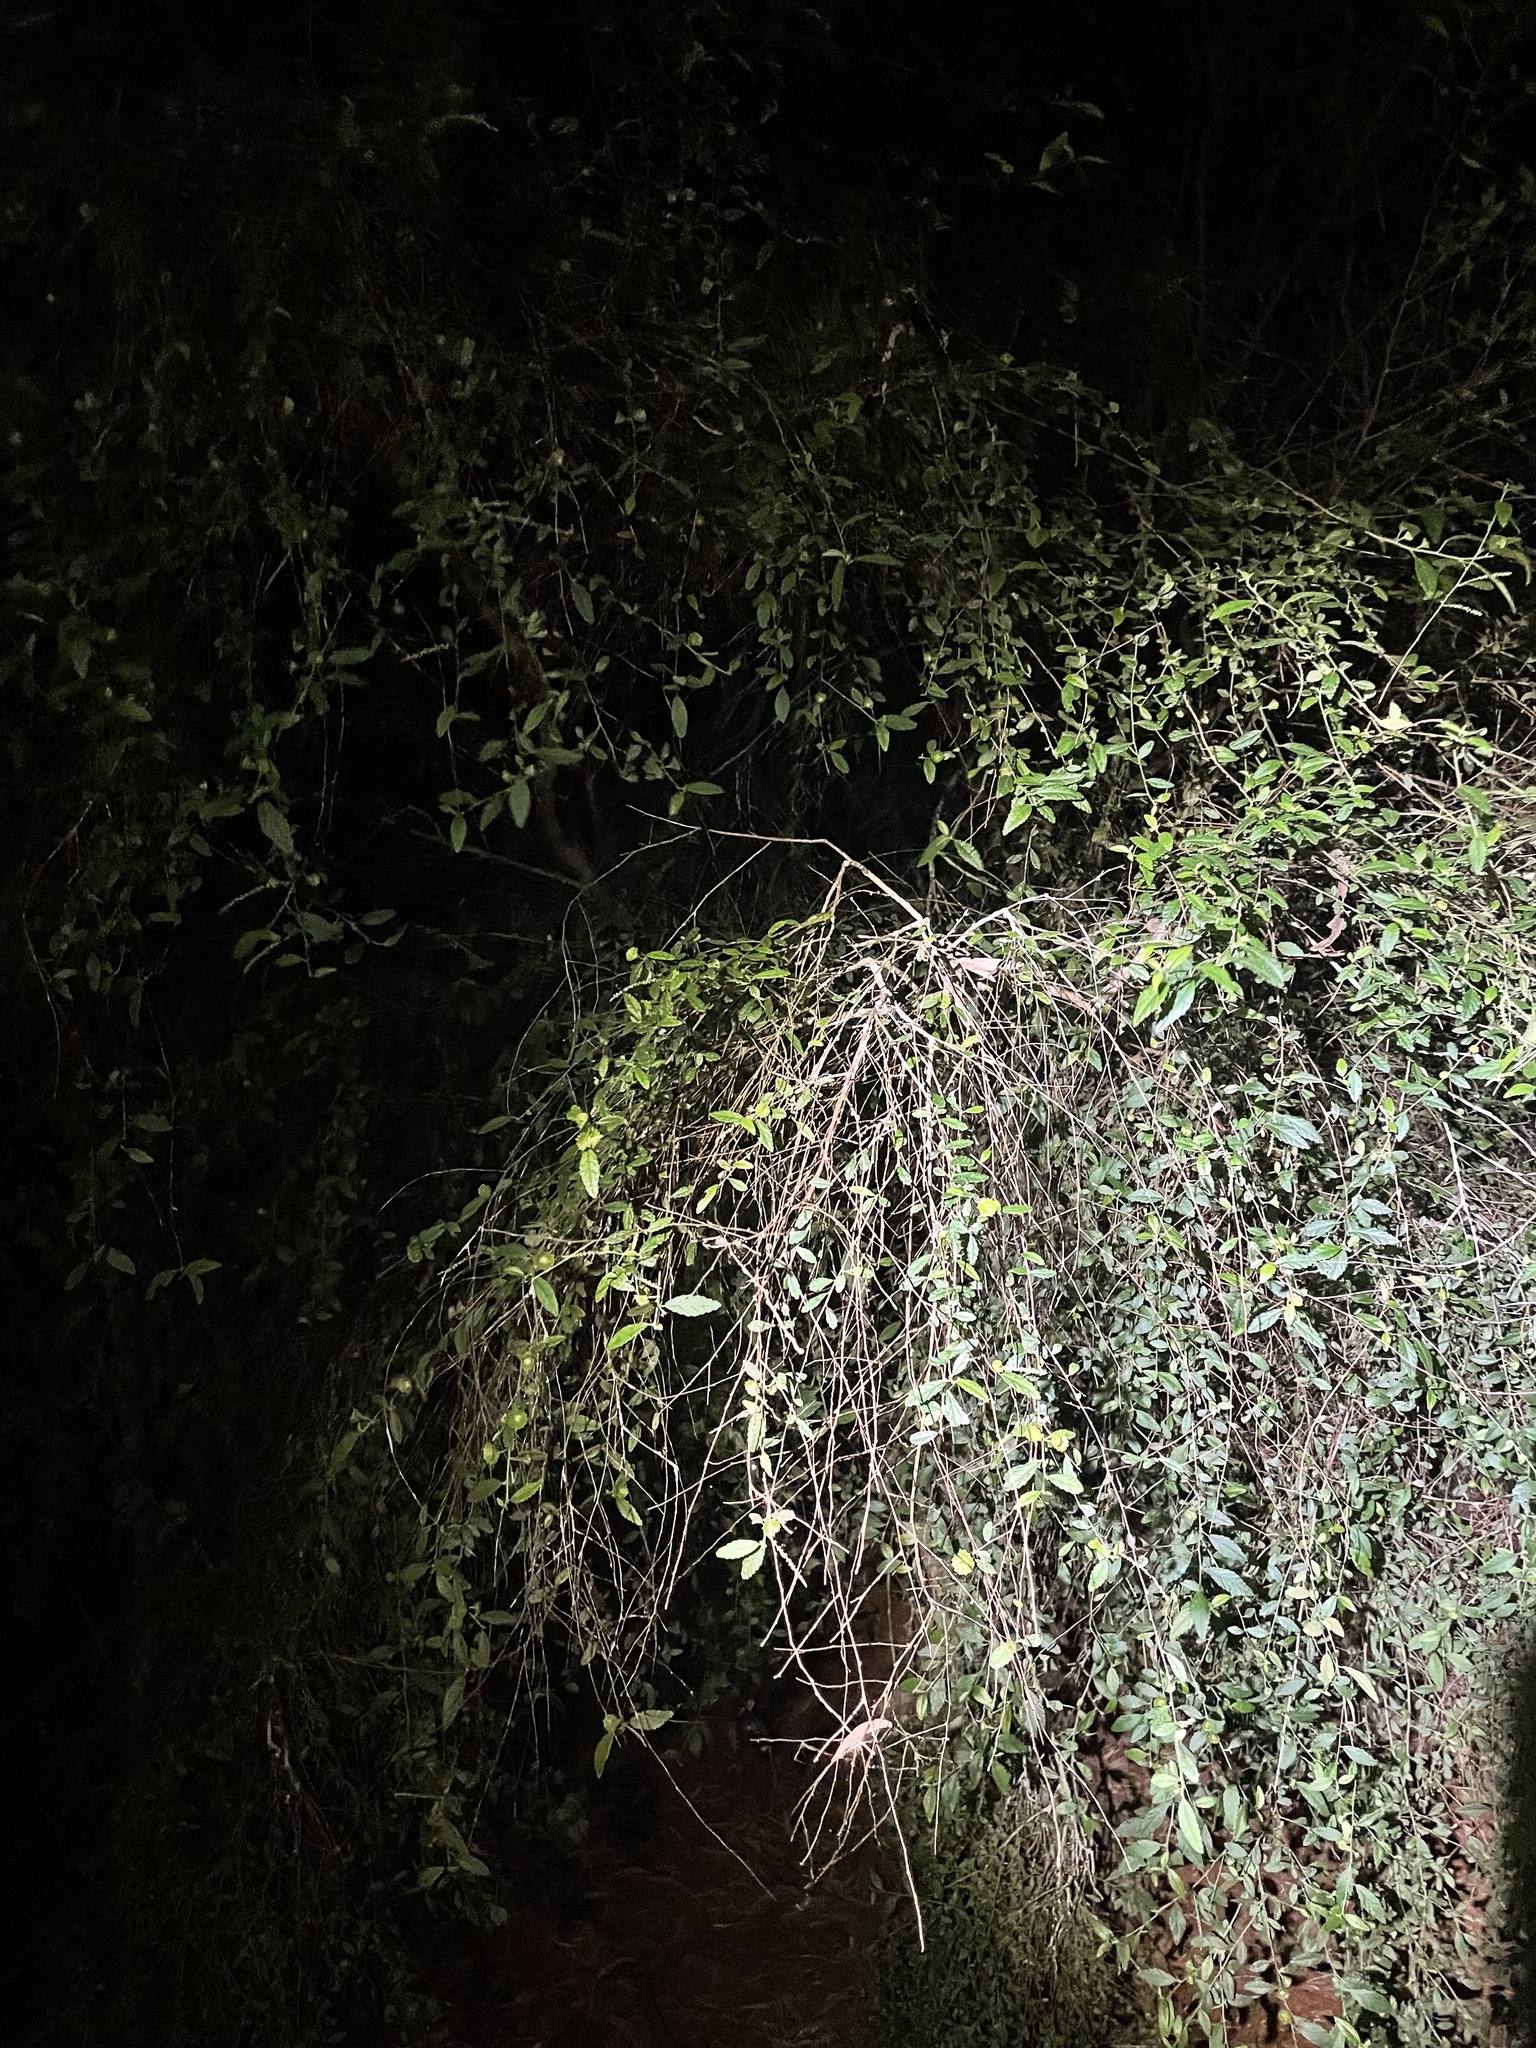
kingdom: Plantae
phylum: Tracheophyta
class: Magnoliopsida
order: Malpighiales
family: Euphorbiaceae
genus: Acalypha
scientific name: Acalypha eremorum
